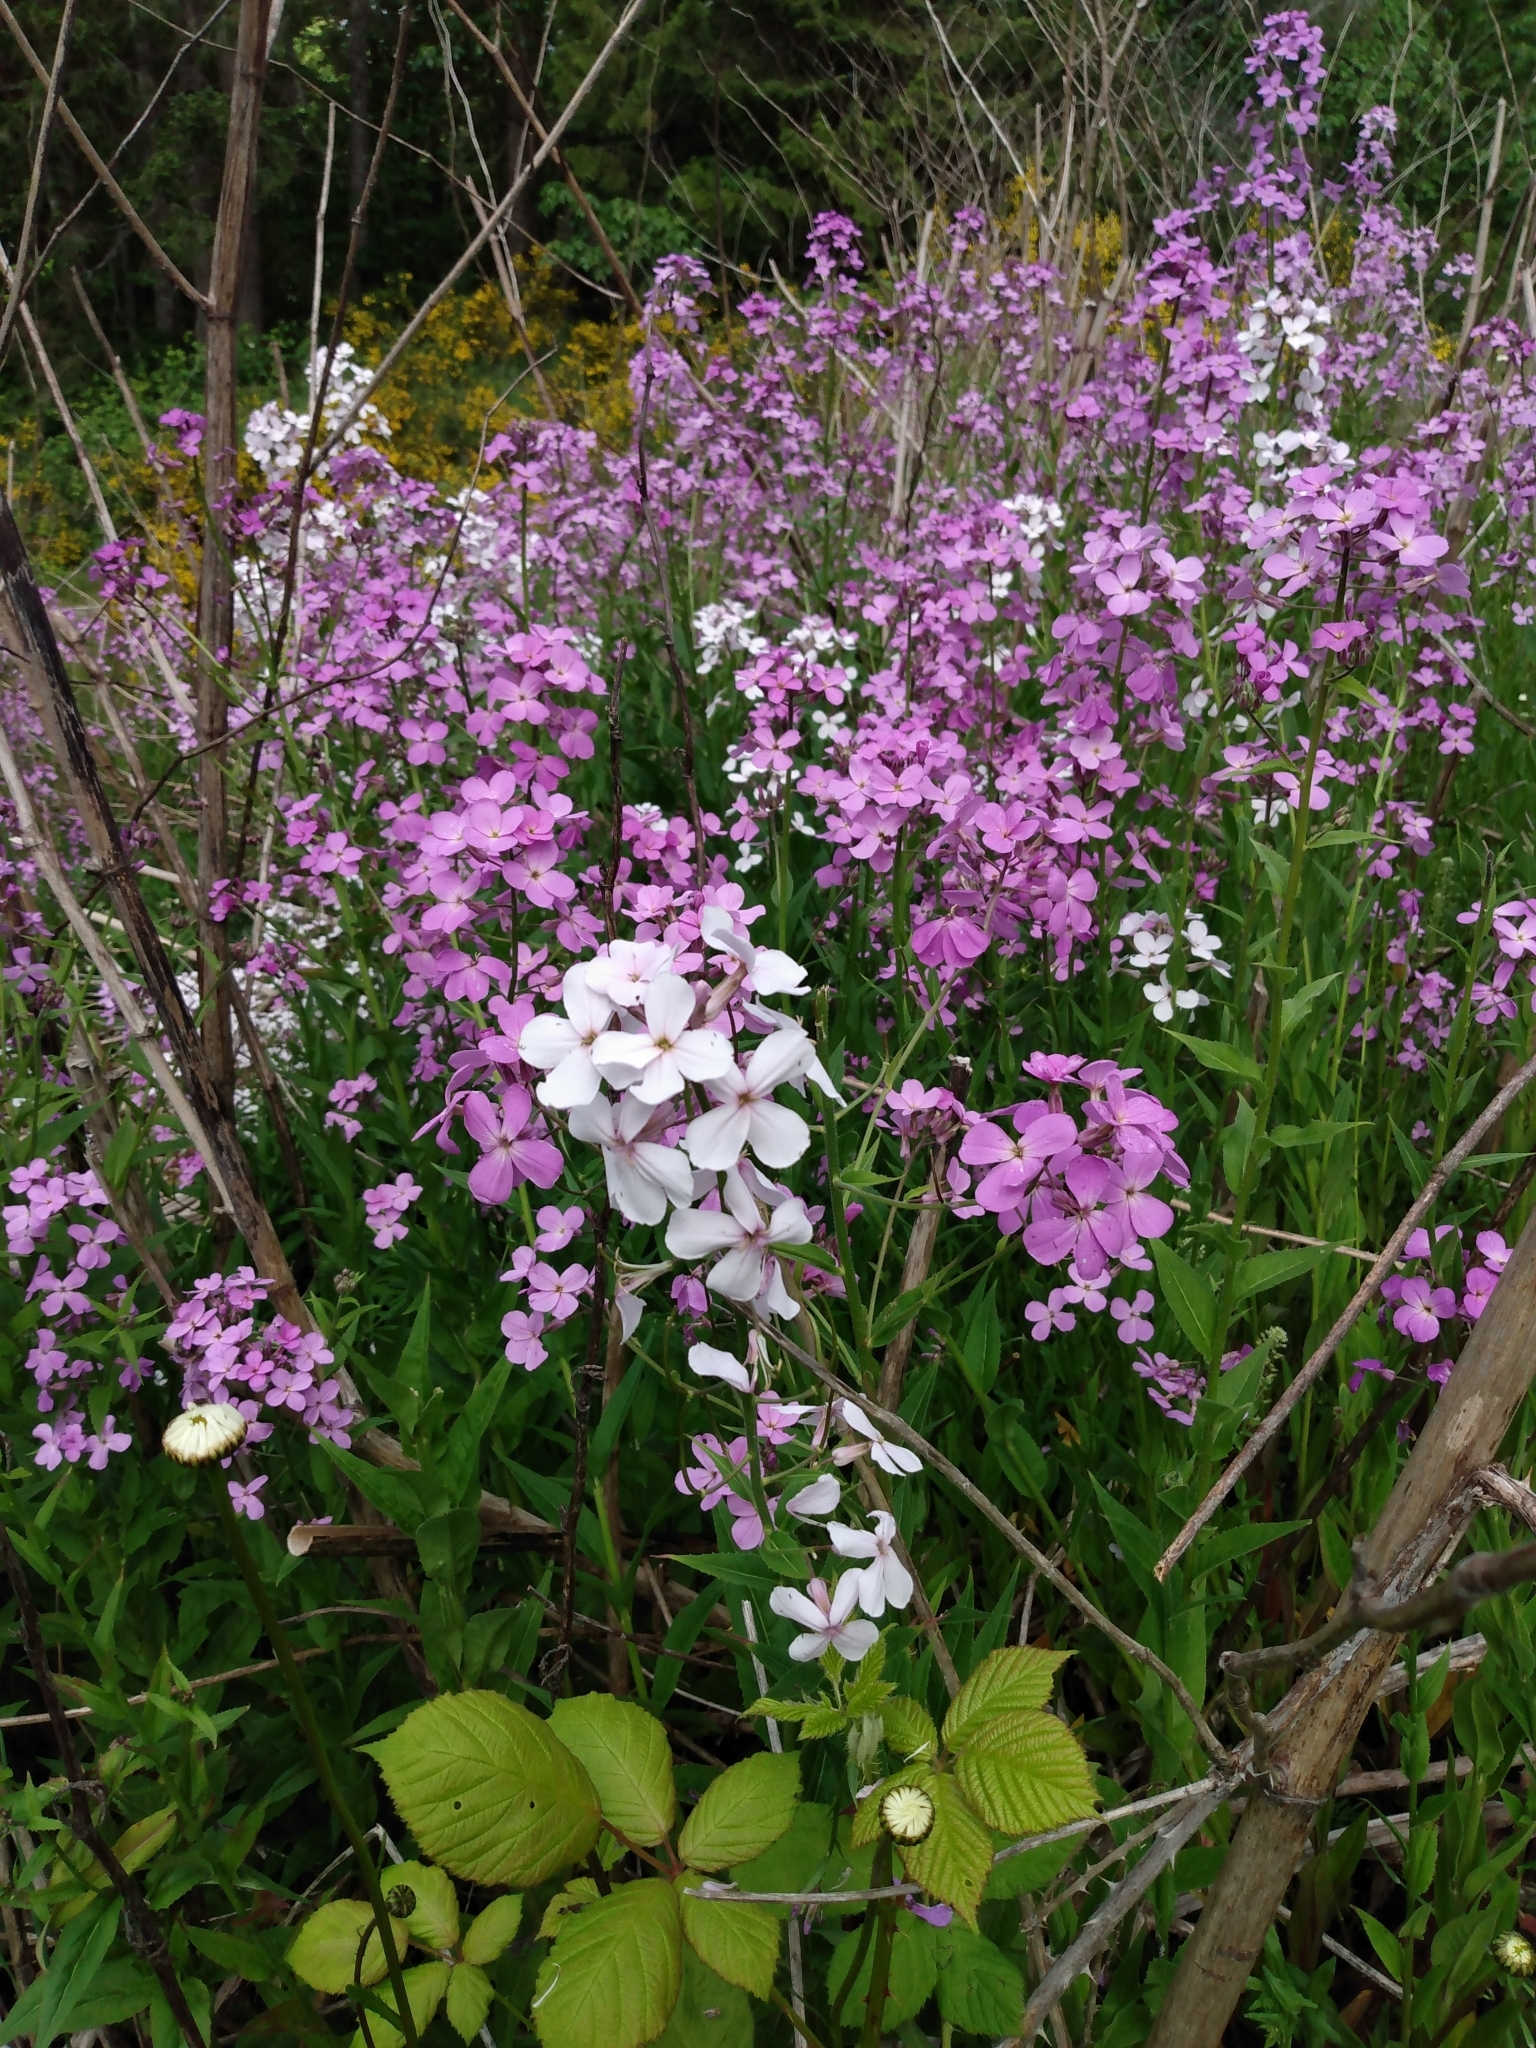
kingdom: Plantae
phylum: Tracheophyta
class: Magnoliopsida
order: Brassicales
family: Brassicaceae
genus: Hesperis
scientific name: Hesperis matronalis
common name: Dame's-violet
